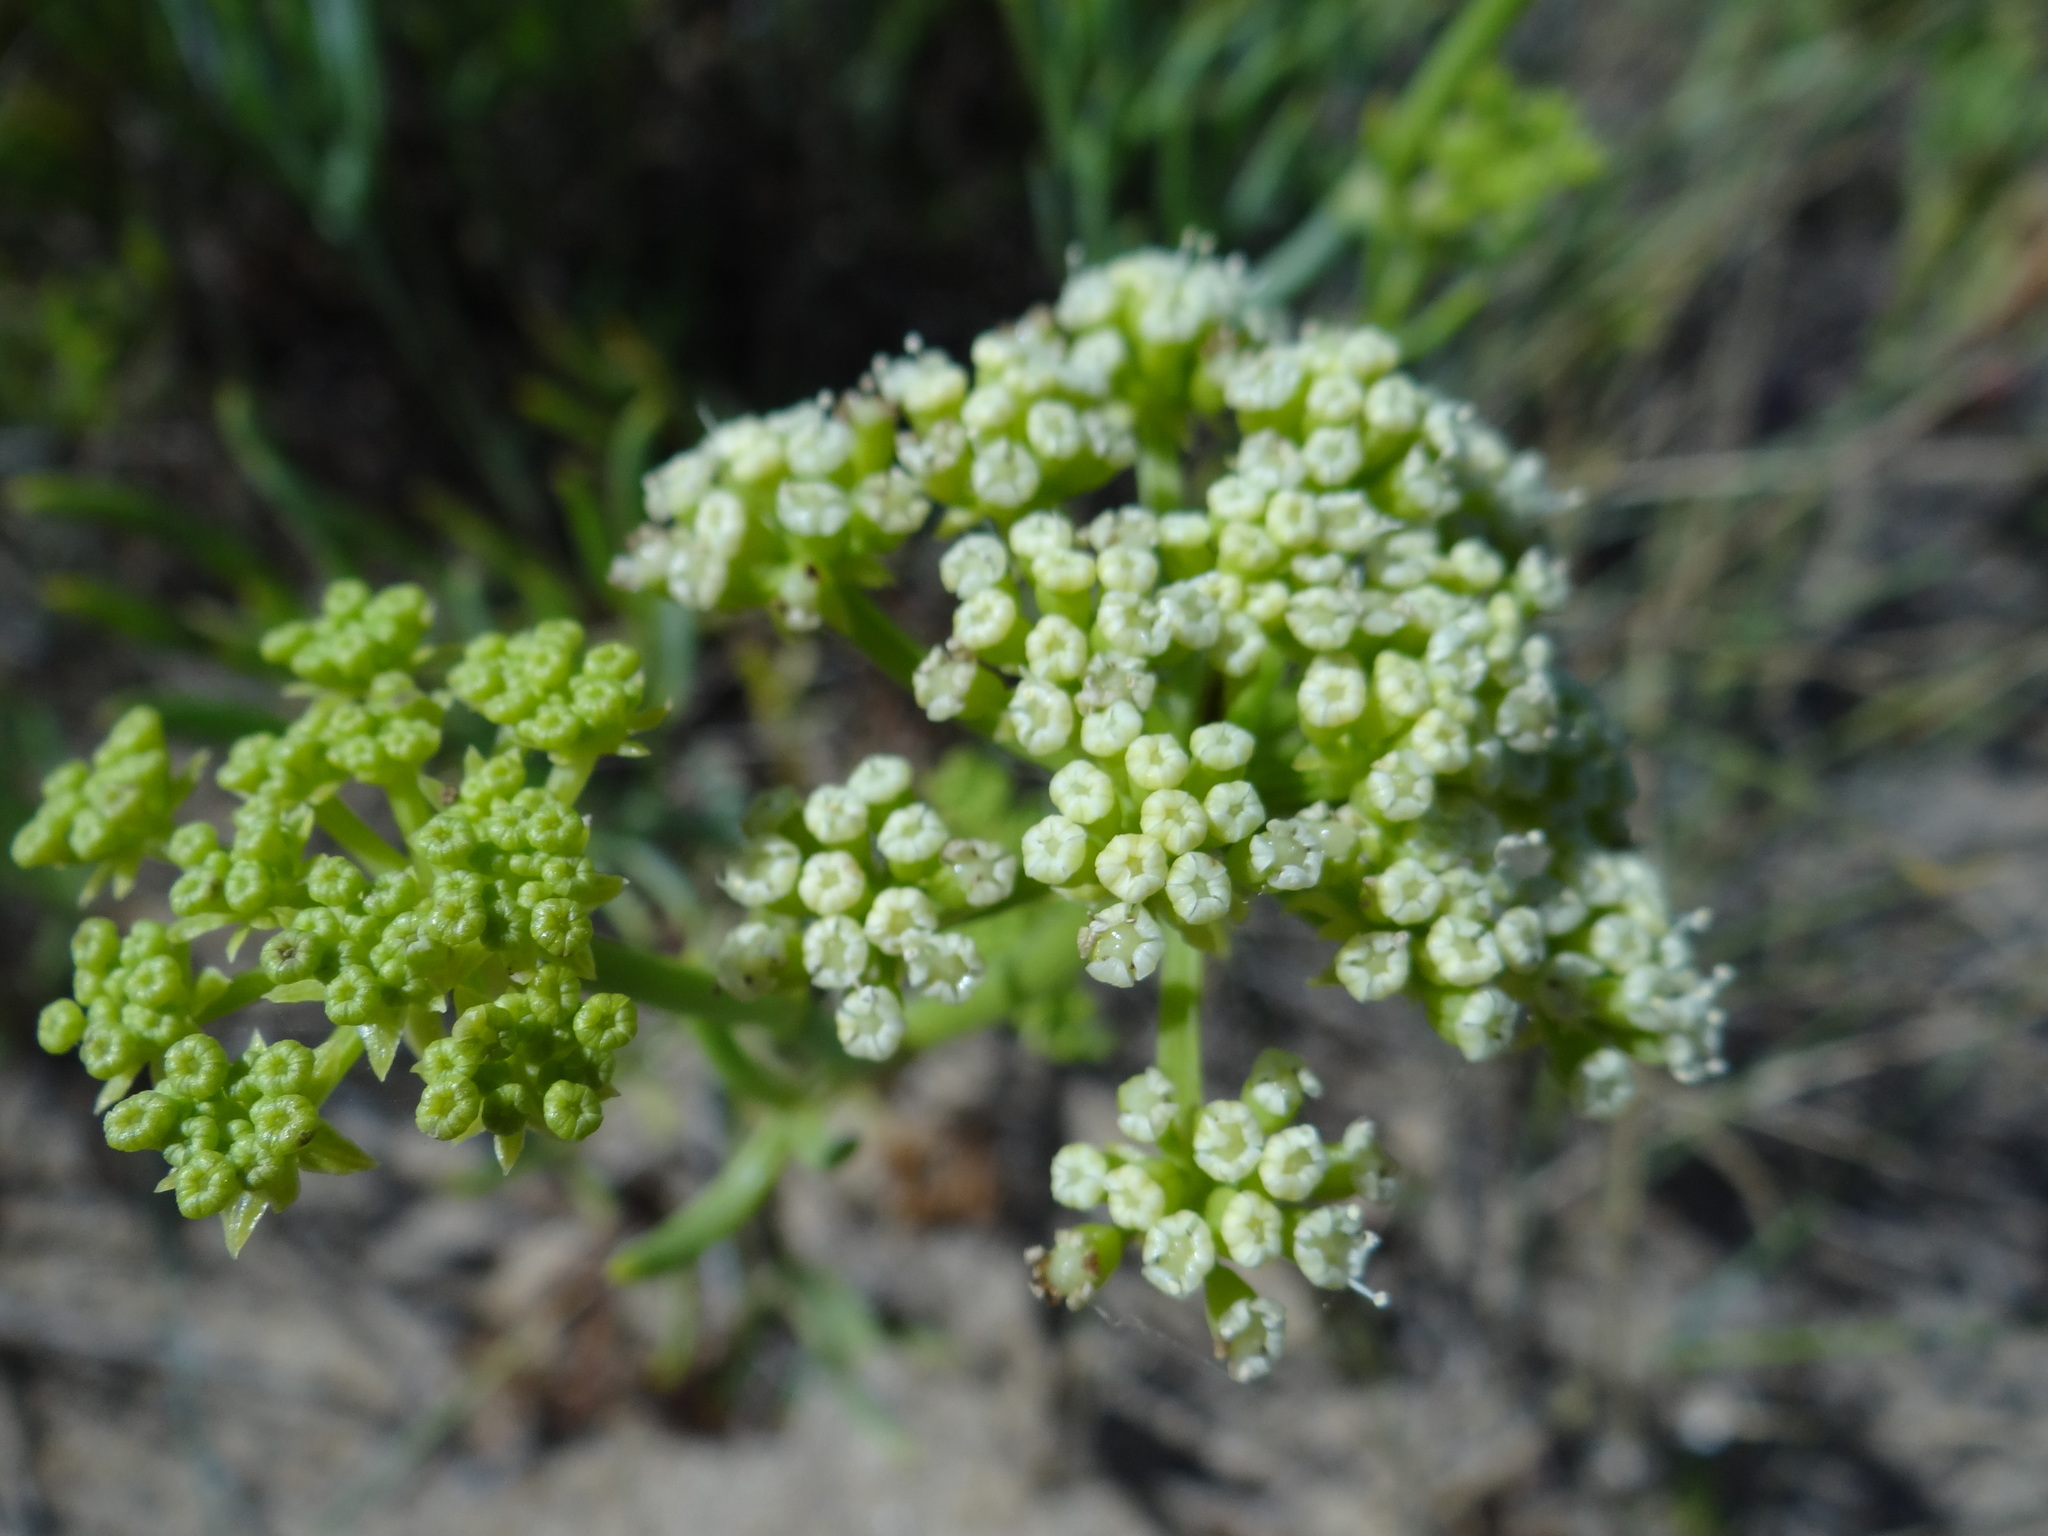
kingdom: Plantae
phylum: Tracheophyta
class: Magnoliopsida
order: Apiales
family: Apiaceae
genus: Crithmum
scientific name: Crithmum maritimum
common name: Rock samphire
